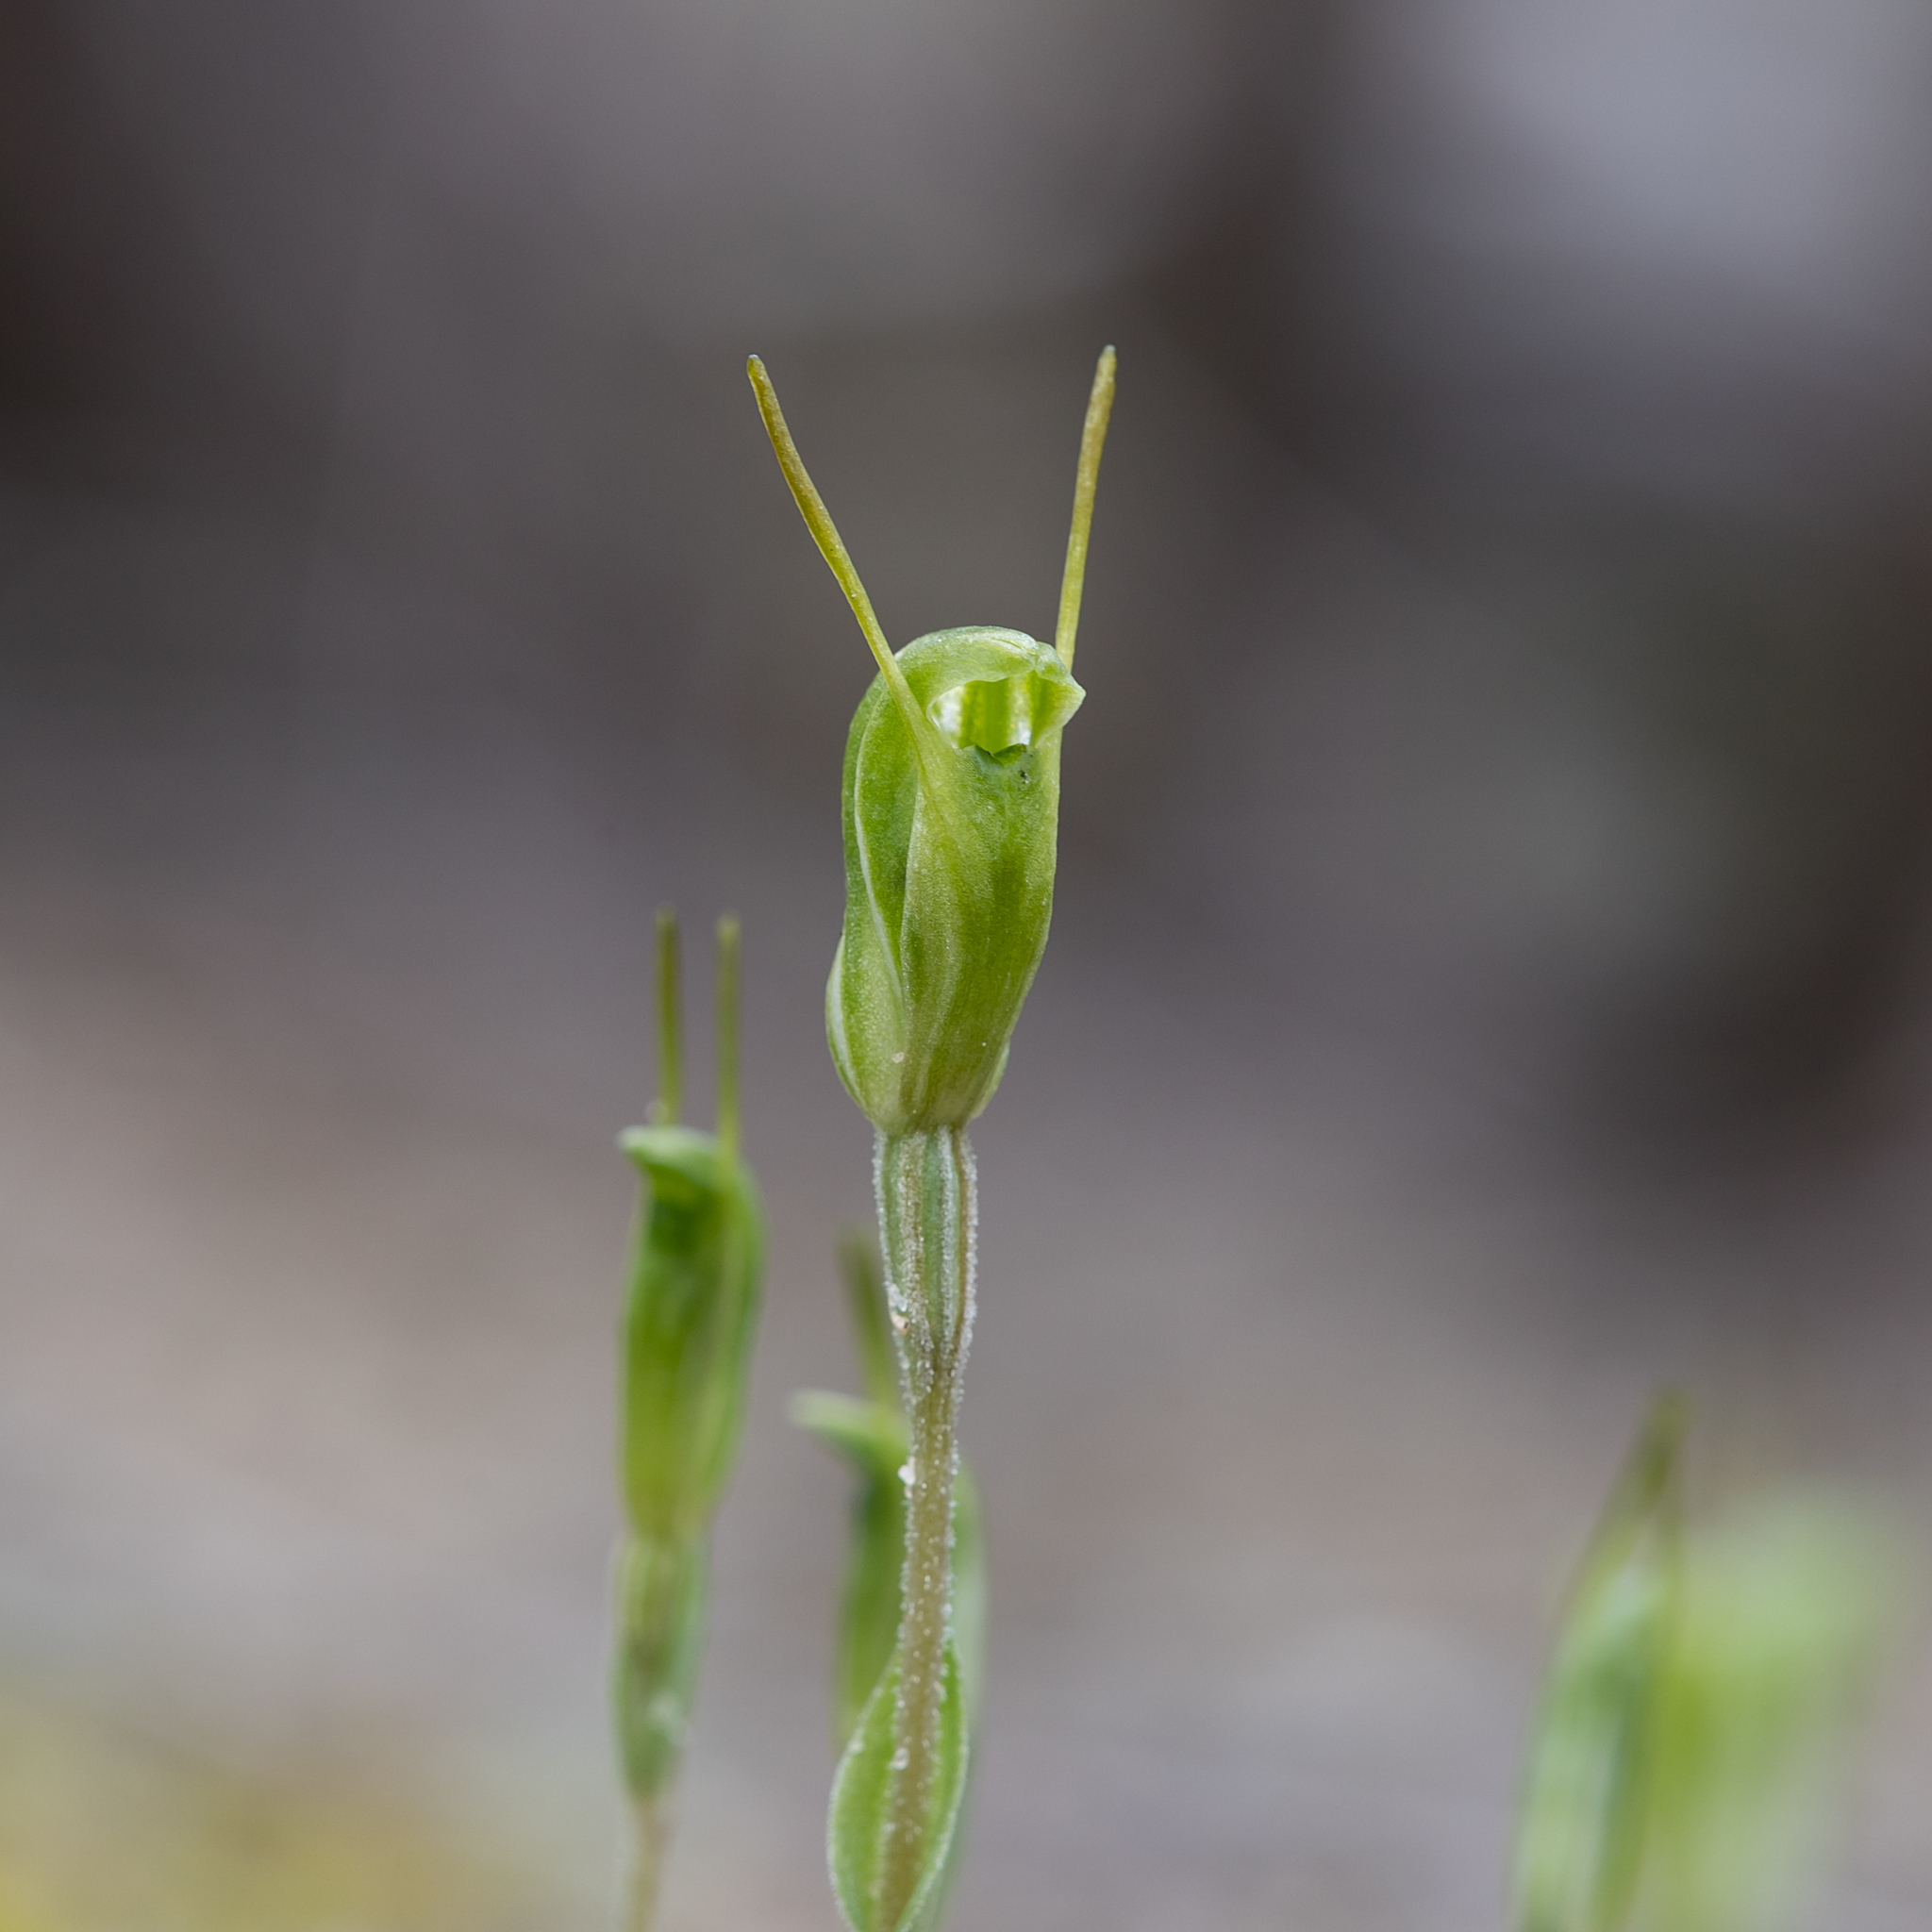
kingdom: Plantae
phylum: Tracheophyta
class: Liliopsida
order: Asparagales
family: Orchidaceae
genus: Pterostylis
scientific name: Pterostylis nana
